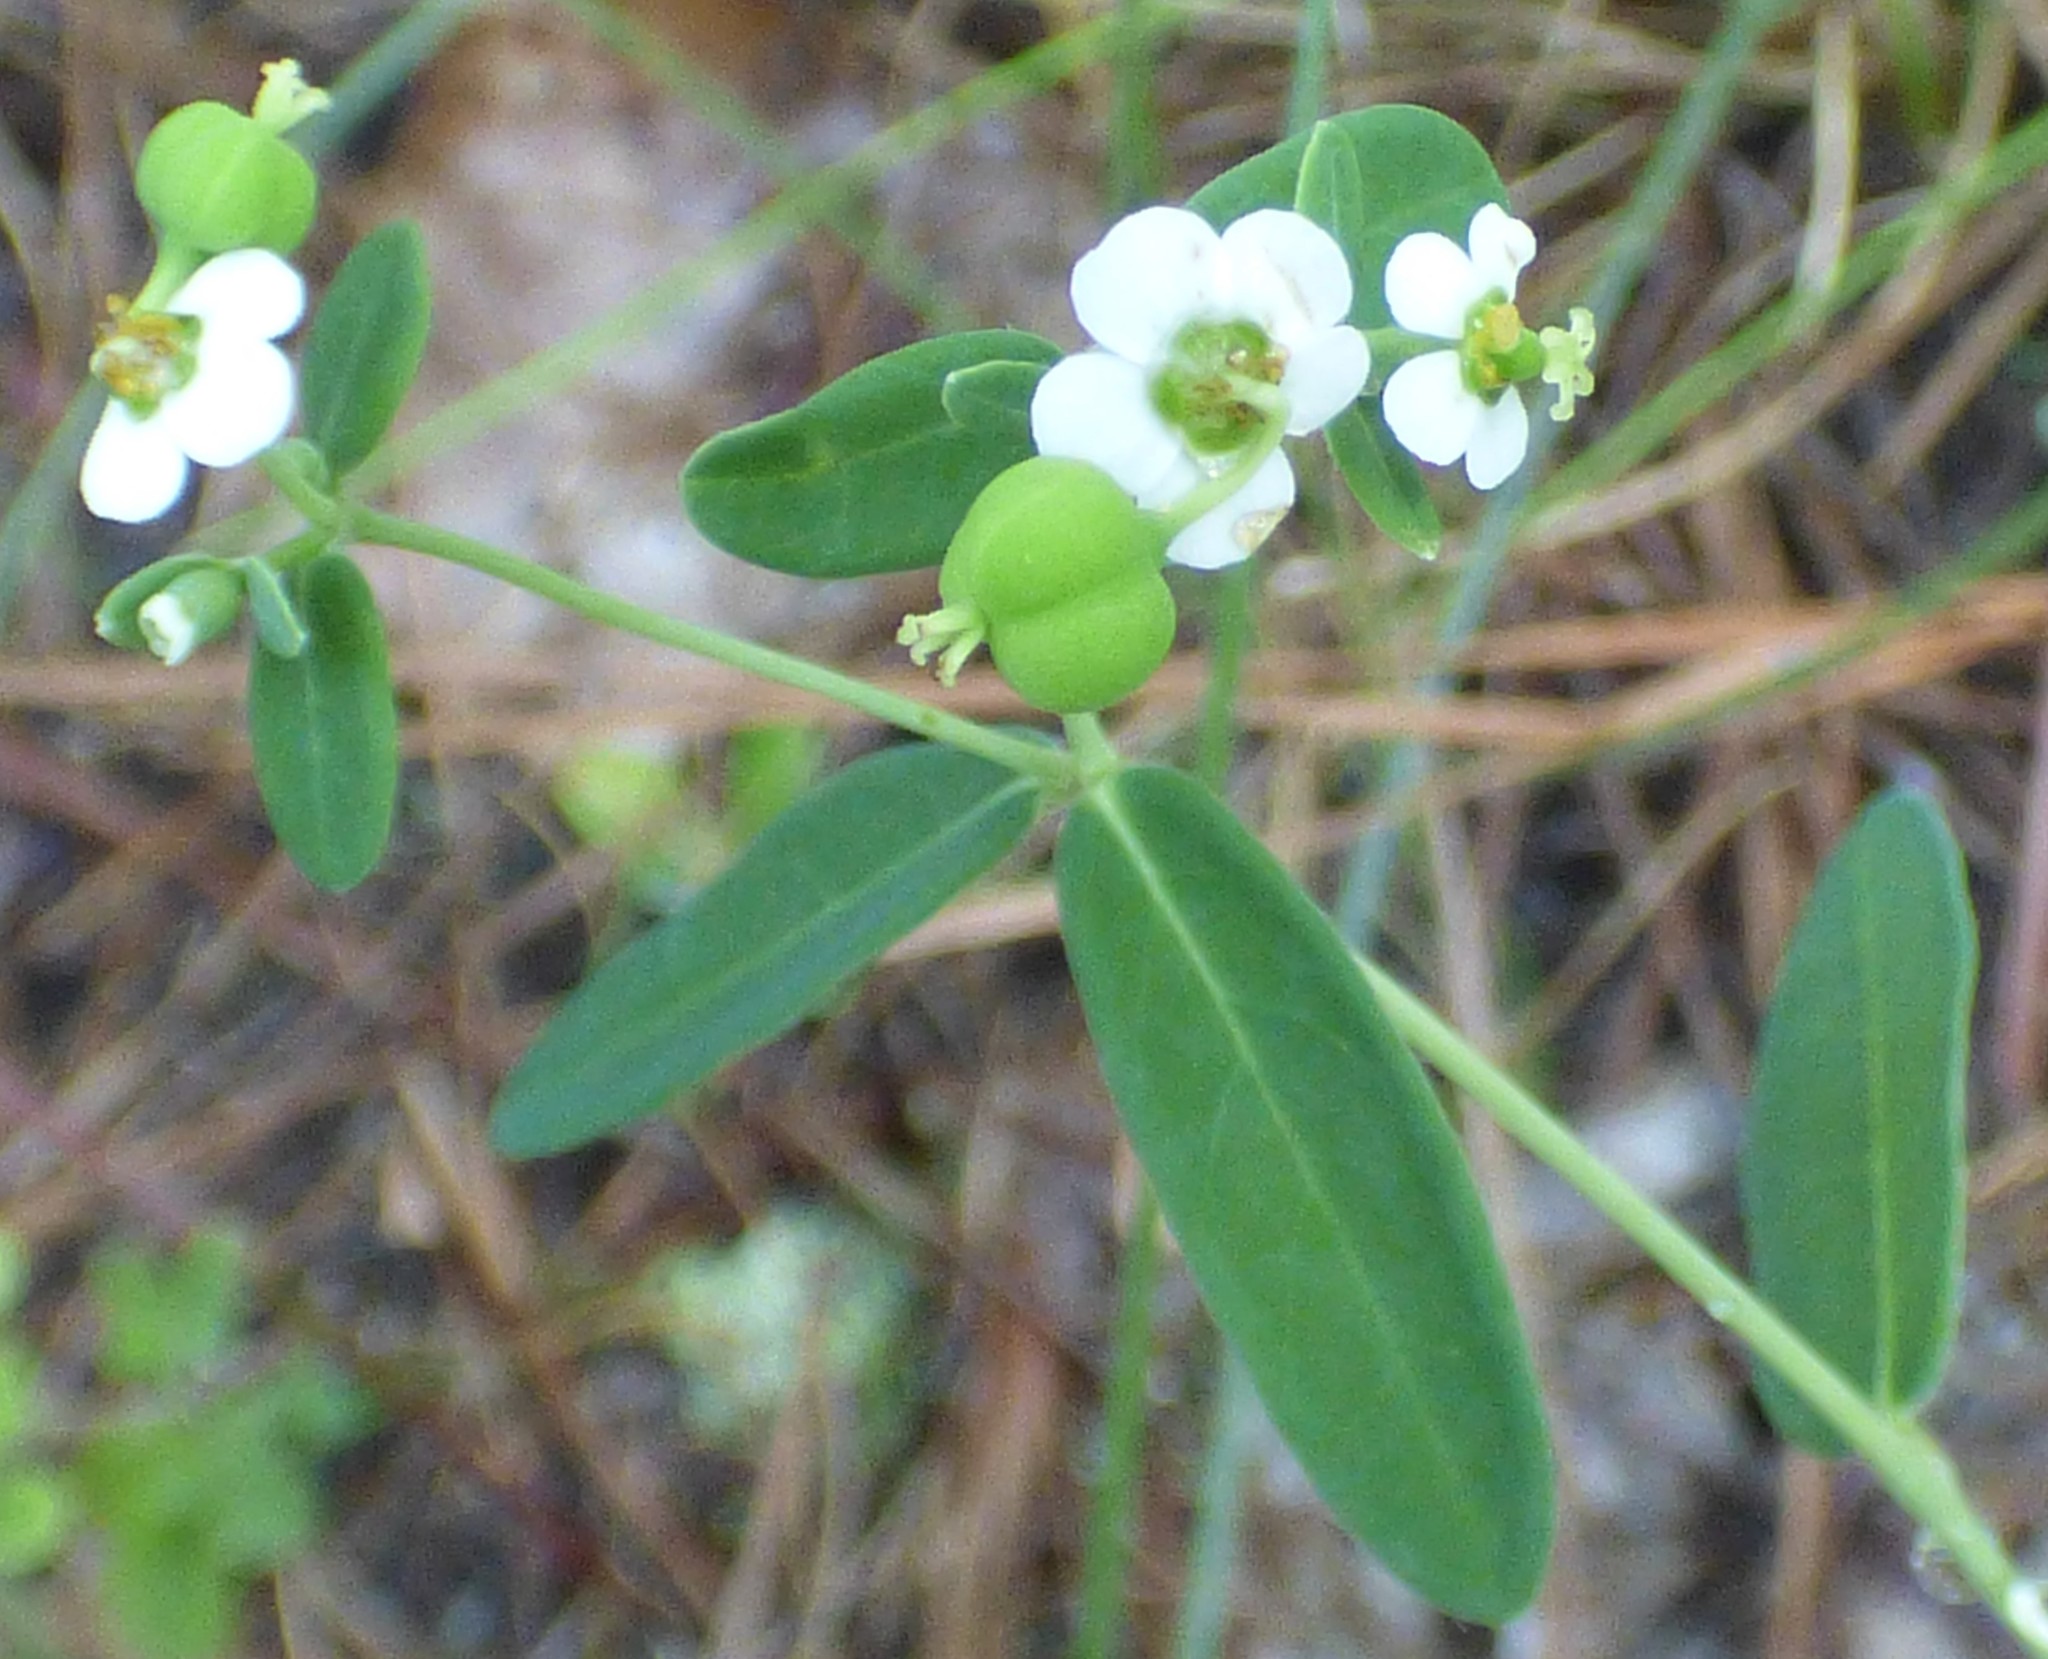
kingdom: Plantae
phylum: Tracheophyta
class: Magnoliopsida
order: Malpighiales
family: Euphorbiaceae
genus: Euphorbia
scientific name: Euphorbia corollata
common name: Flowering spurge
